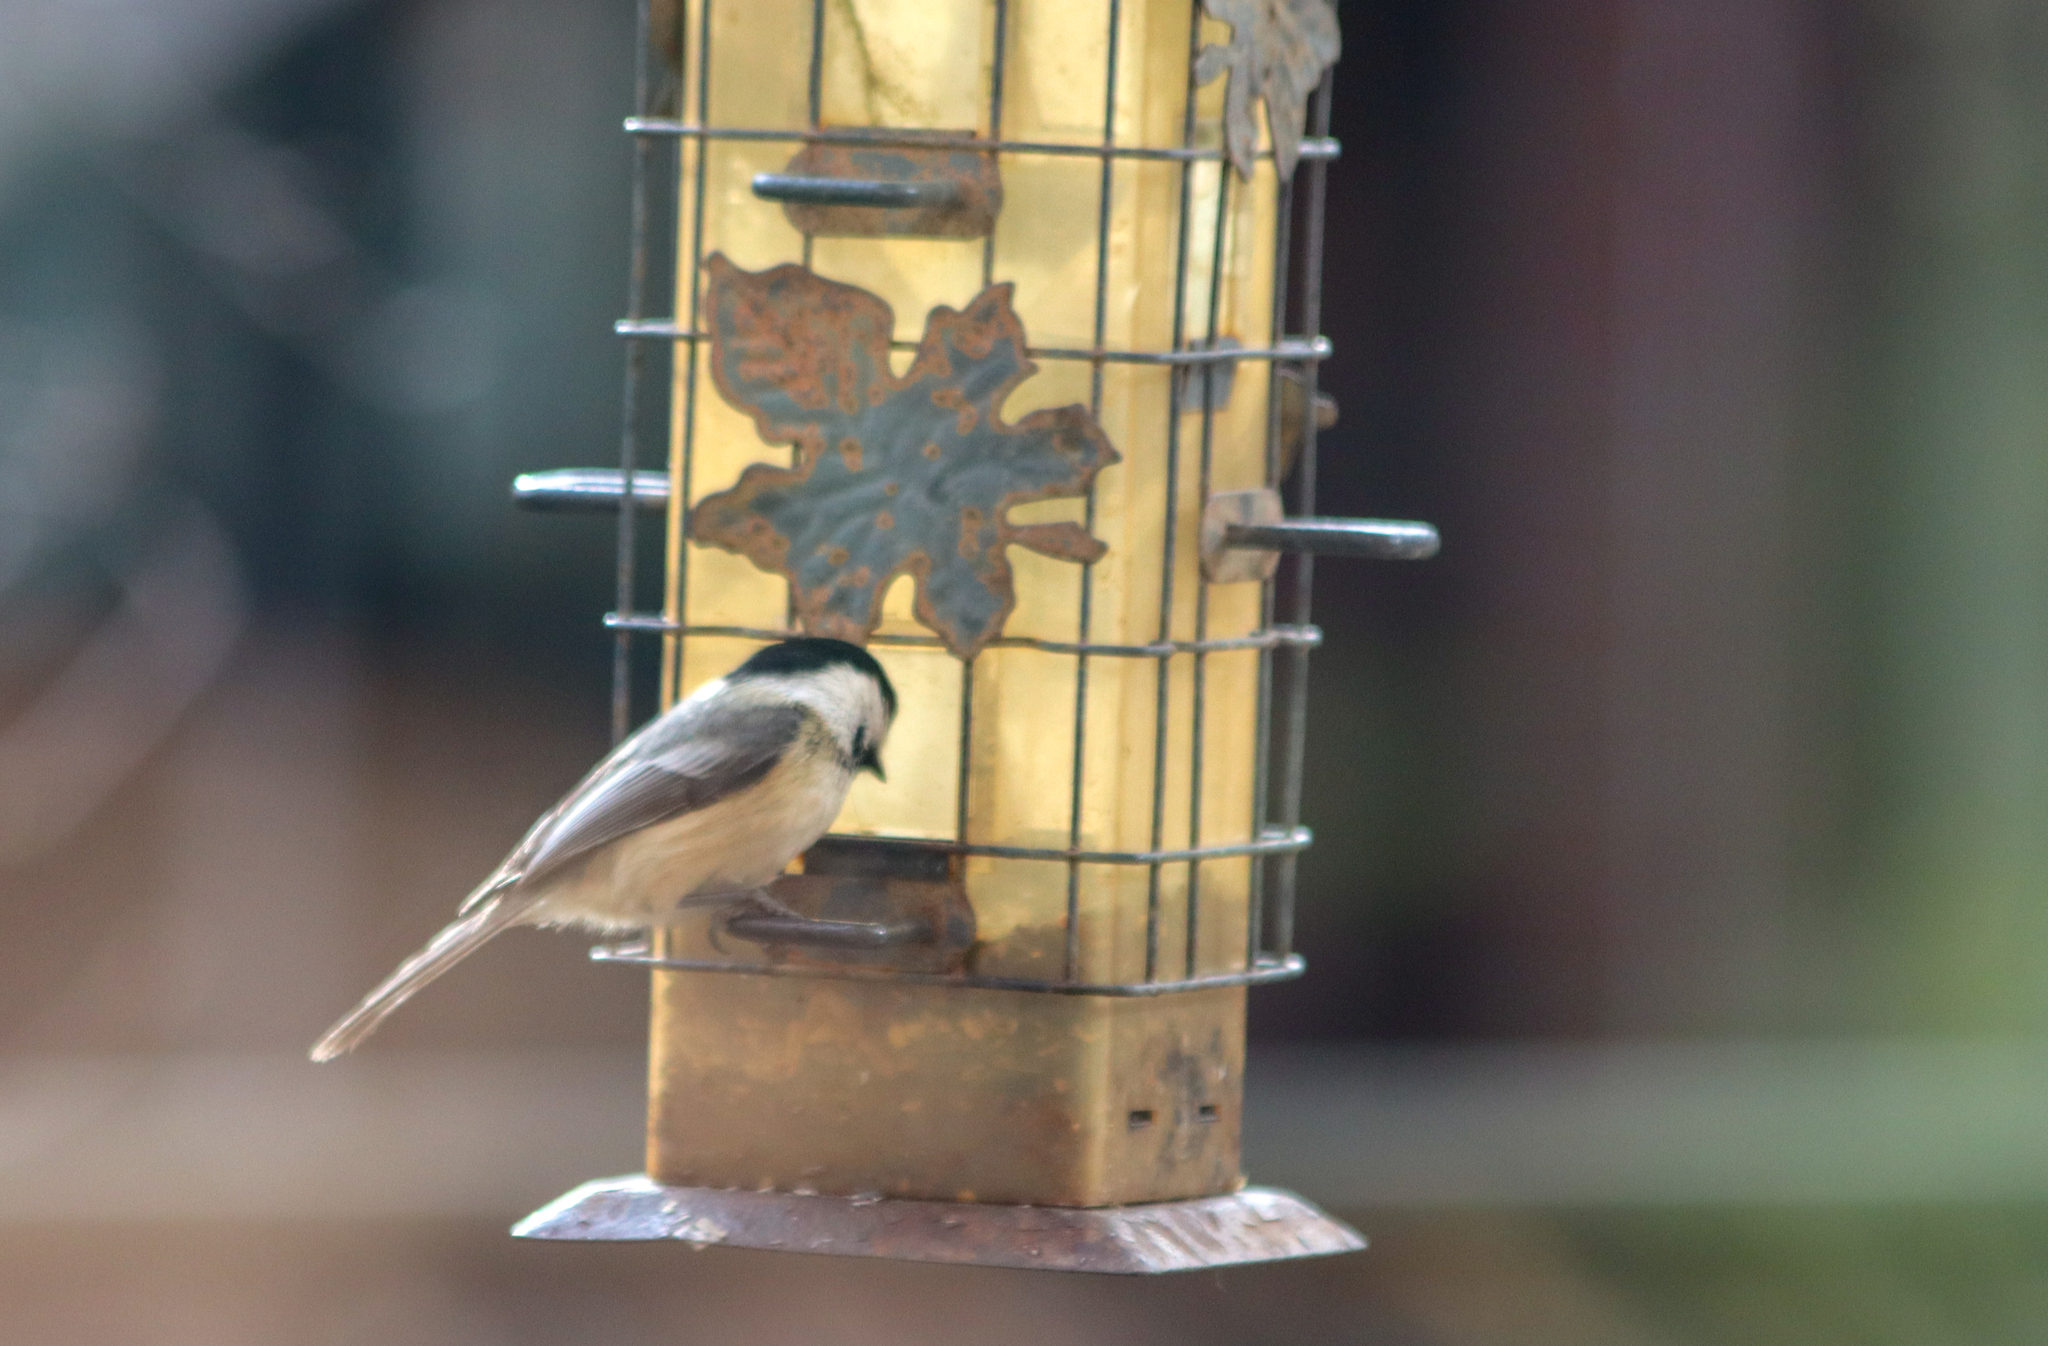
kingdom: Animalia
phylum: Chordata
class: Aves
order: Passeriformes
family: Paridae
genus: Poecile
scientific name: Poecile atricapillus
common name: Black-capped chickadee
